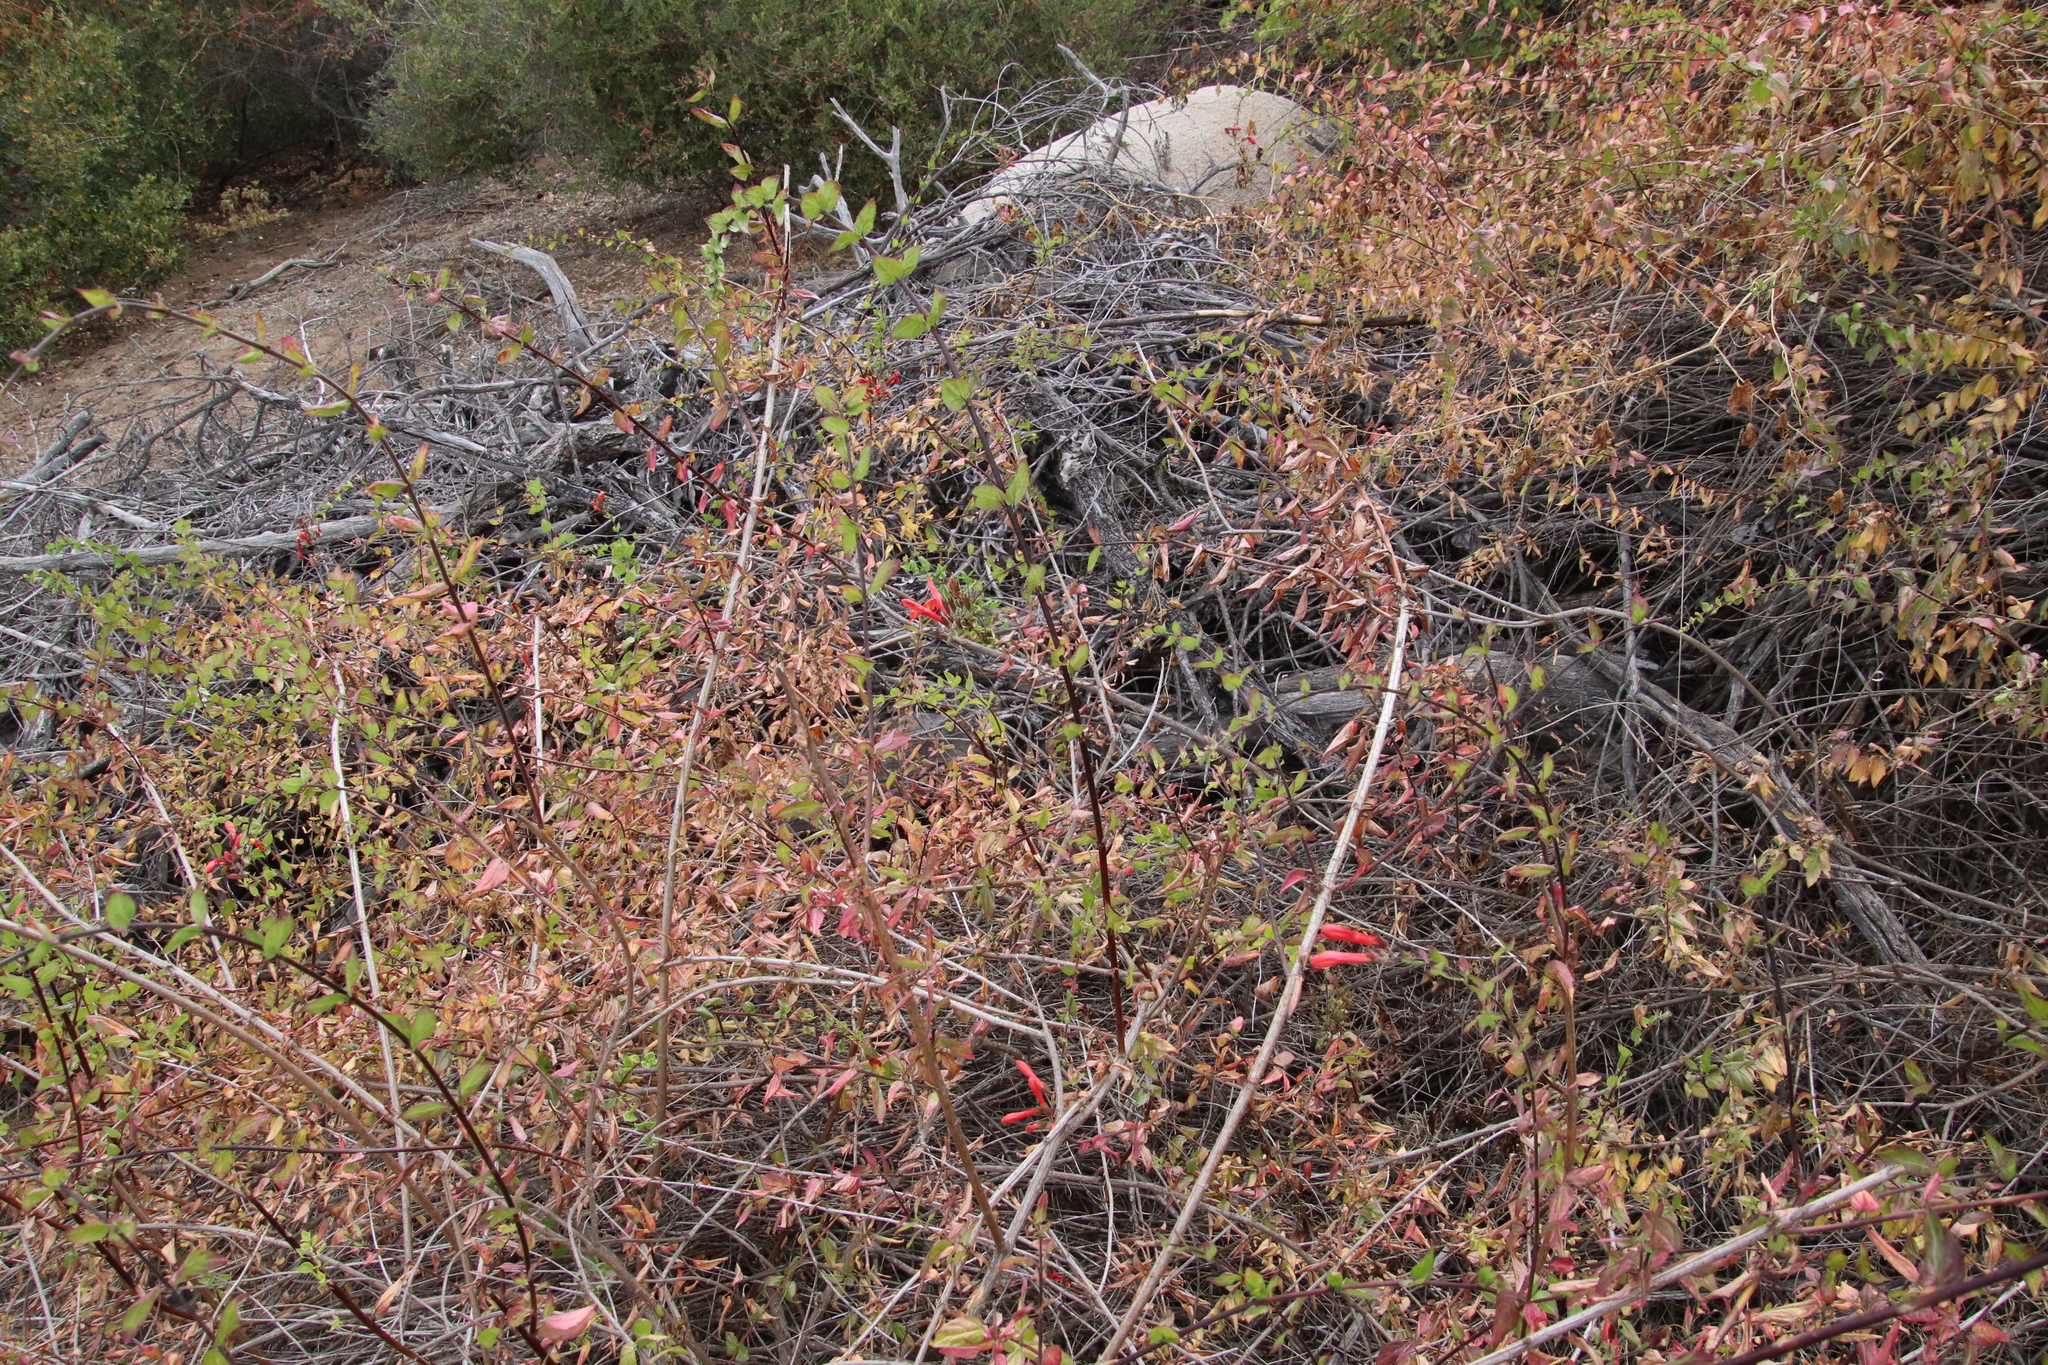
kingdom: Plantae
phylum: Tracheophyta
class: Magnoliopsida
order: Lamiales
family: Plantaginaceae
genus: Keckiella
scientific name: Keckiella cordifolia
